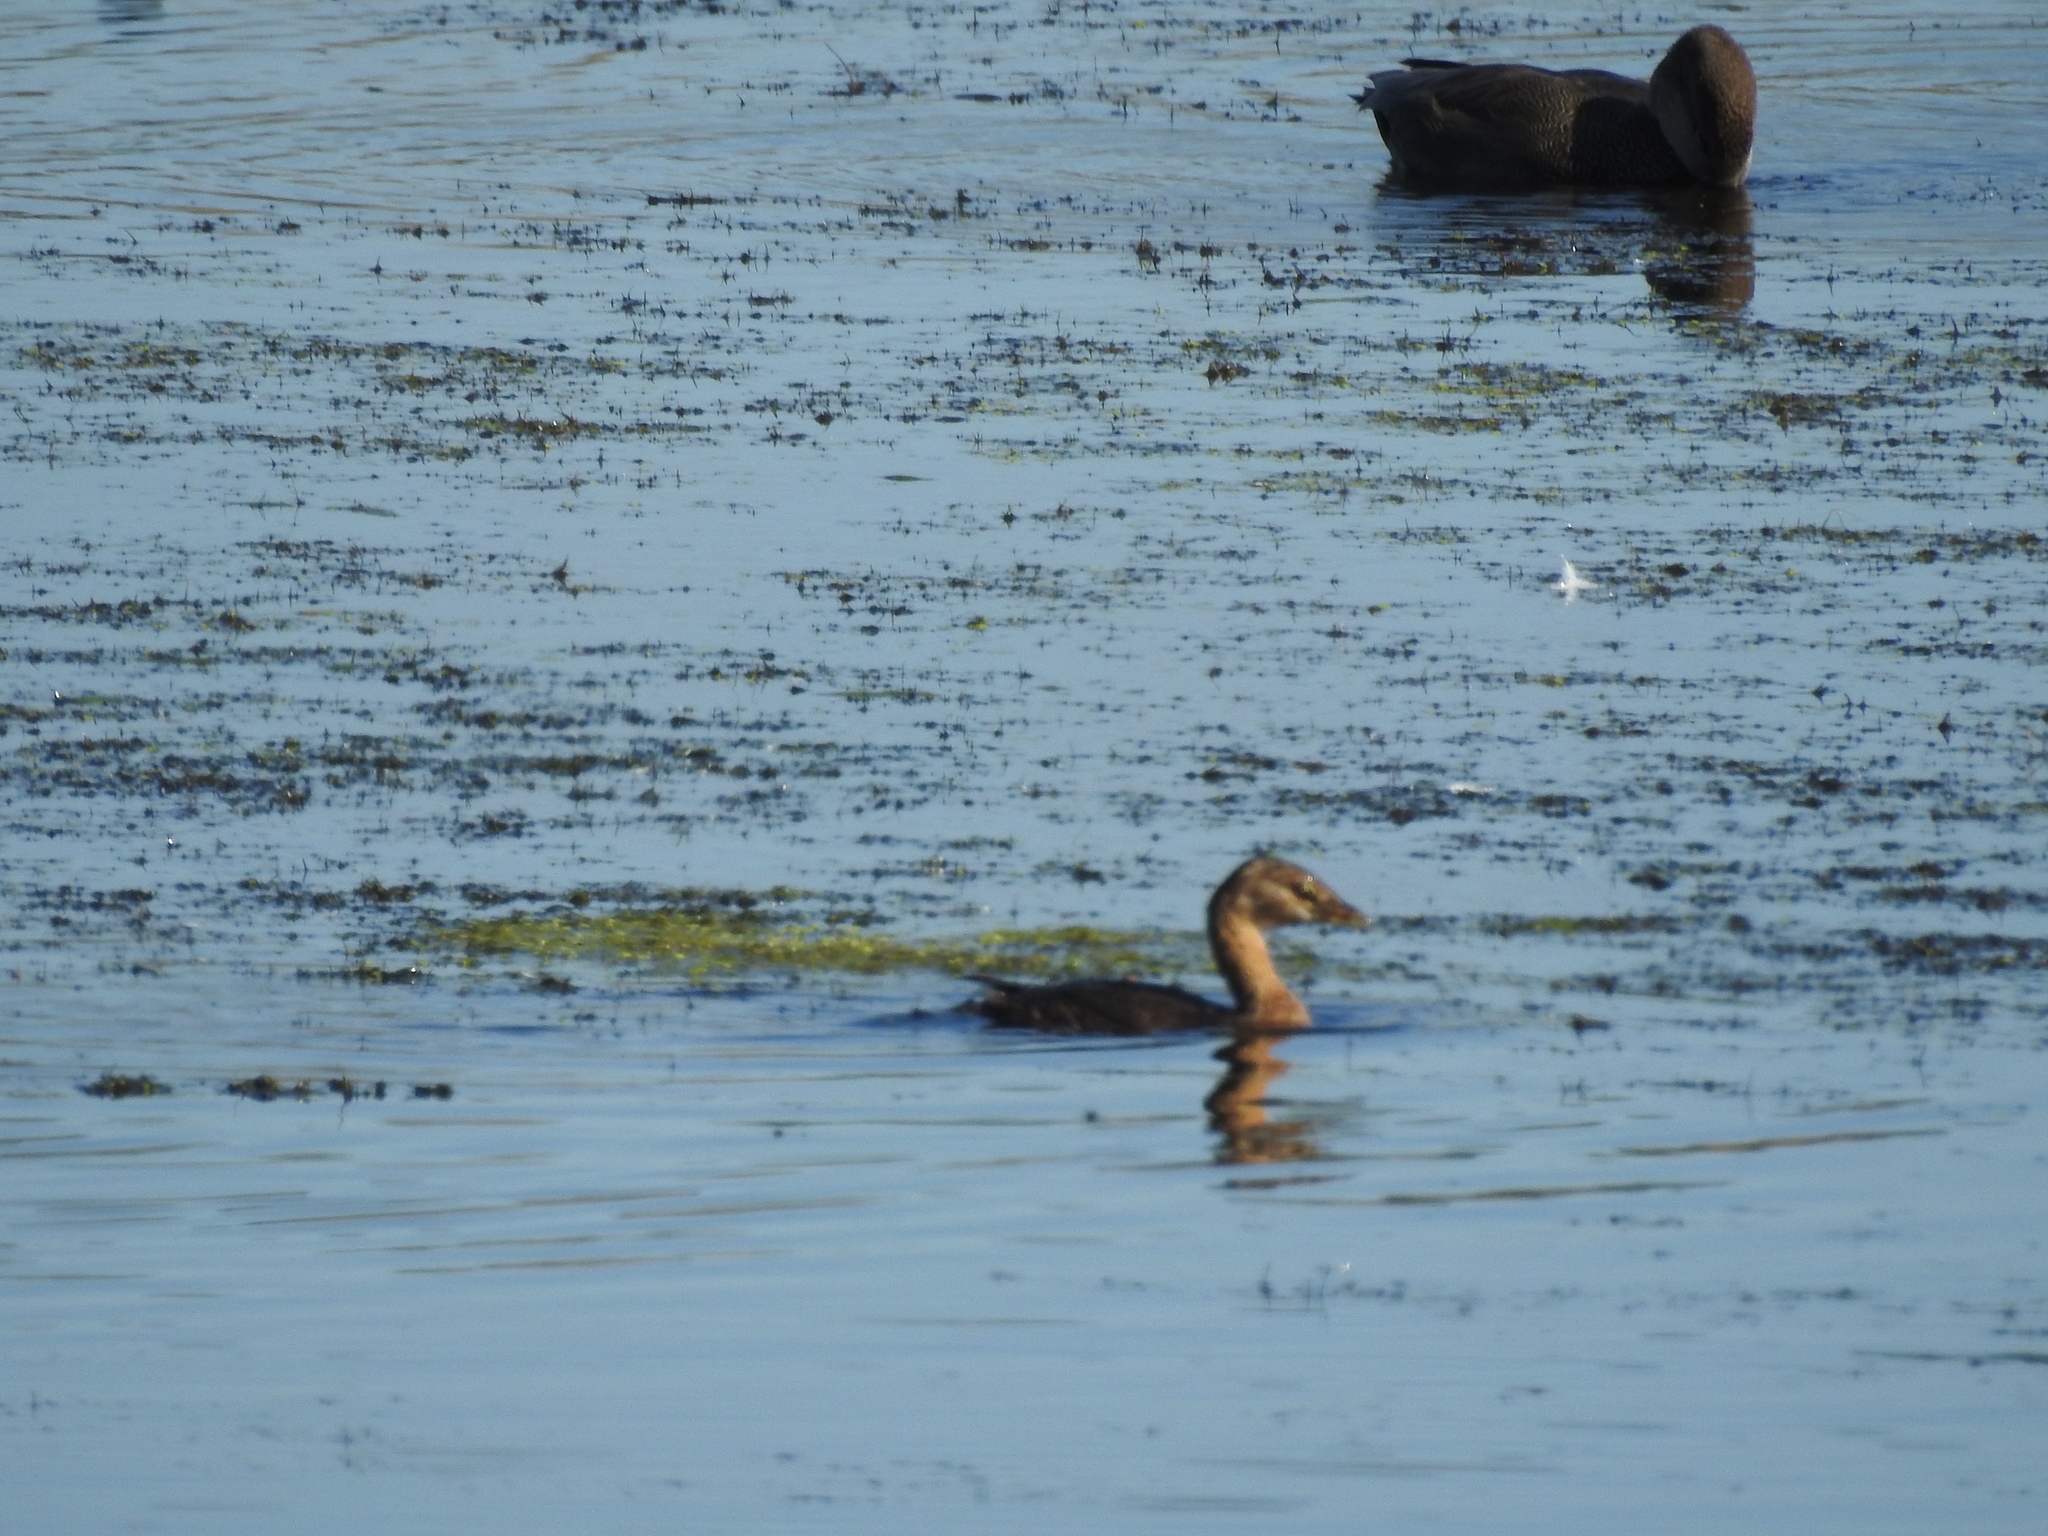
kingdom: Animalia
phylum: Chordata
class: Aves
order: Podicipediformes
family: Podicipedidae
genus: Podilymbus
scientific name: Podilymbus podiceps
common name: Pied-billed grebe
